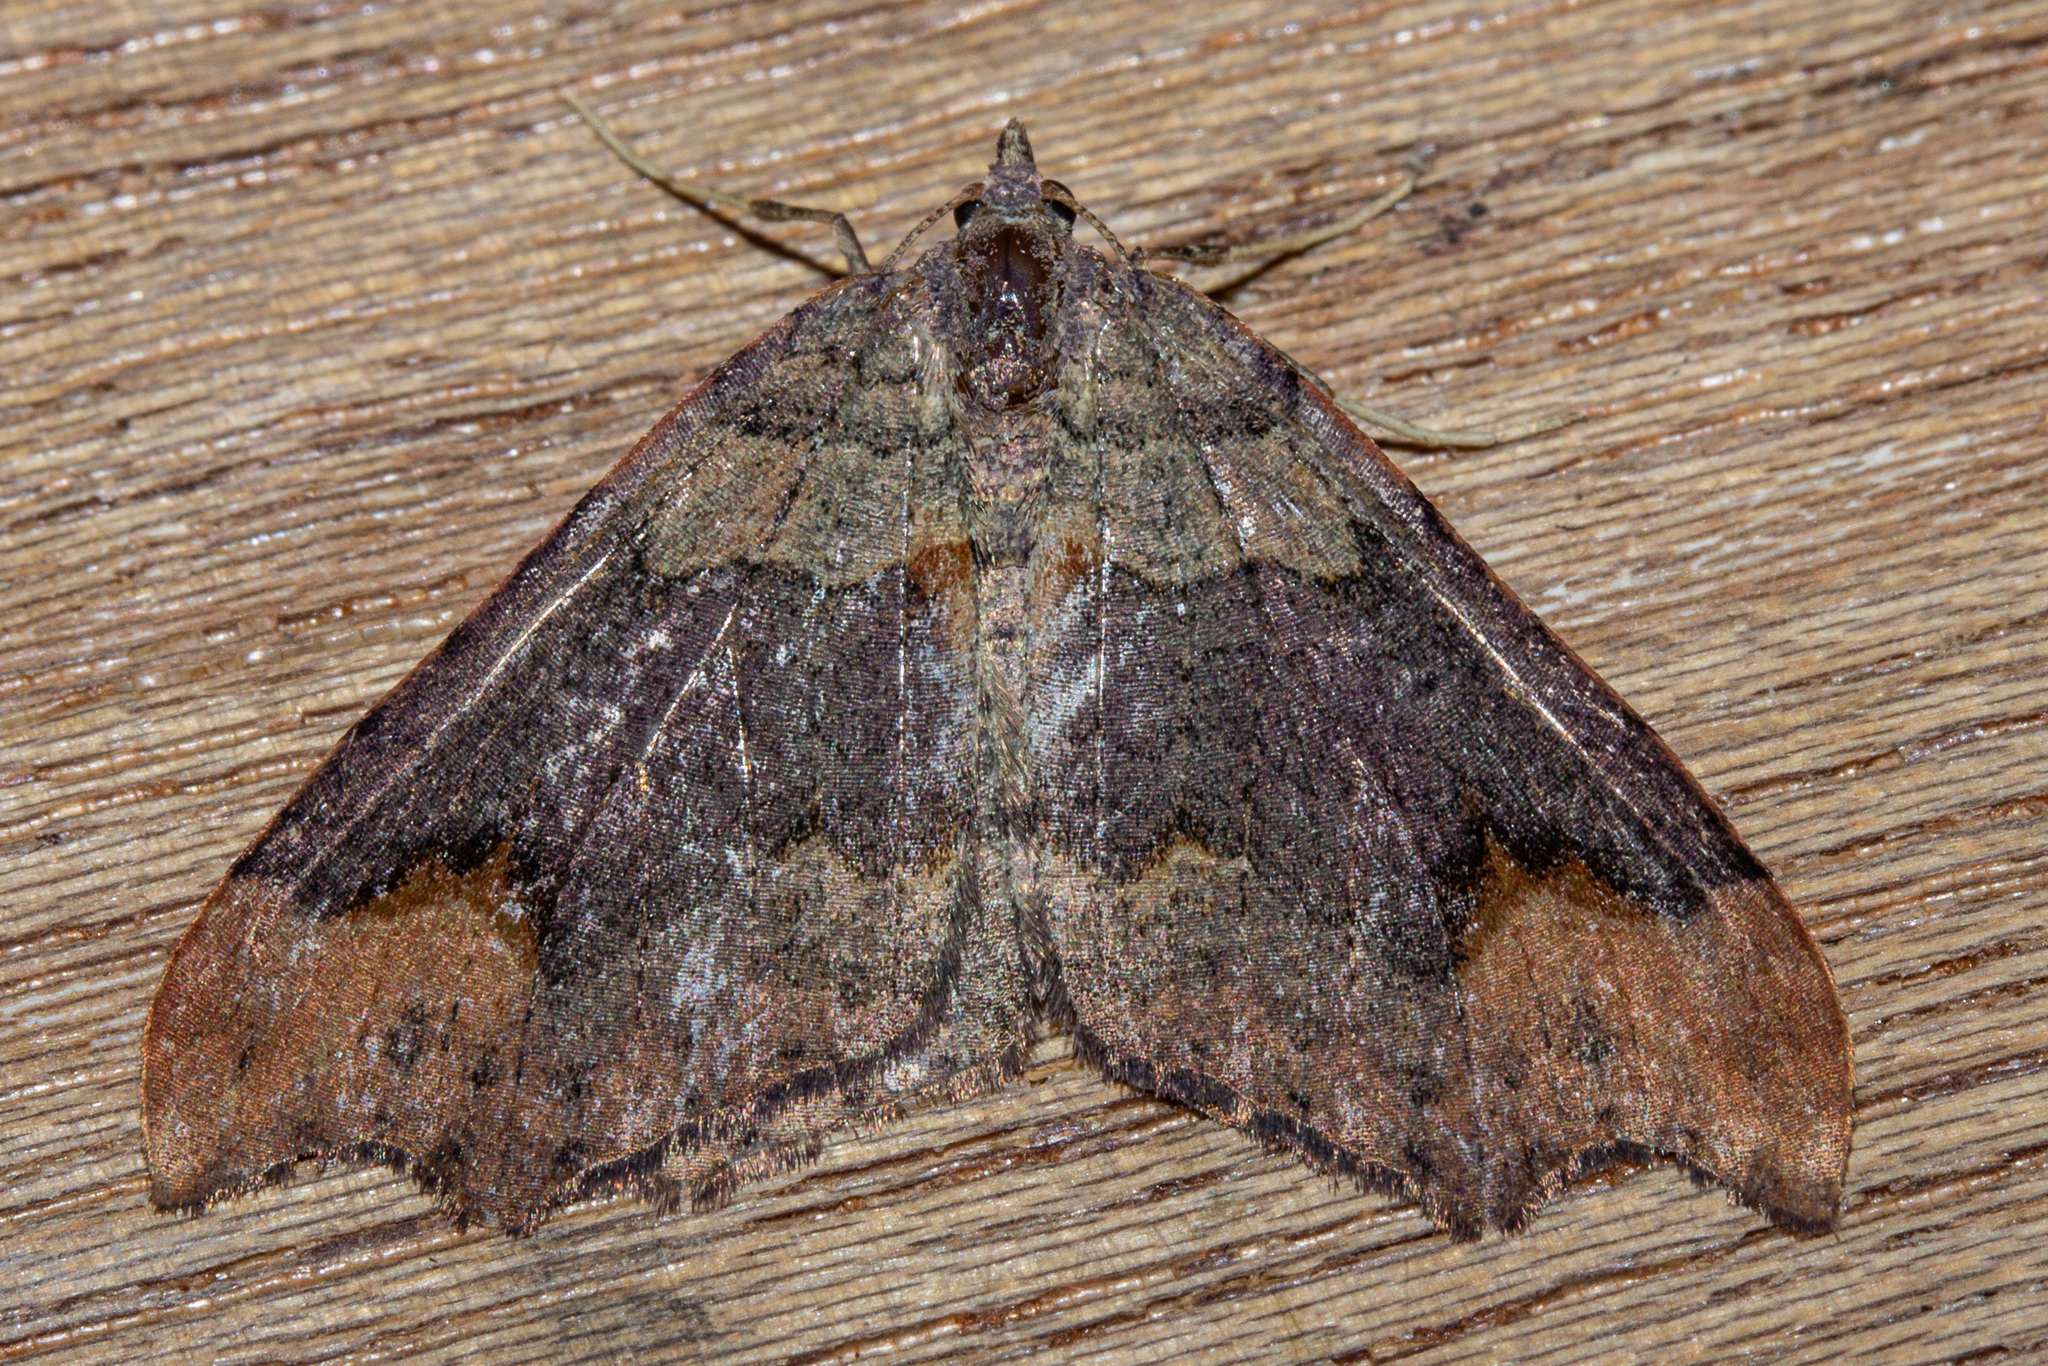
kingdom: Animalia
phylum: Arthropoda
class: Insecta
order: Lepidoptera
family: Geometridae
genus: Austrocidaria
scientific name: Austrocidaria parora
